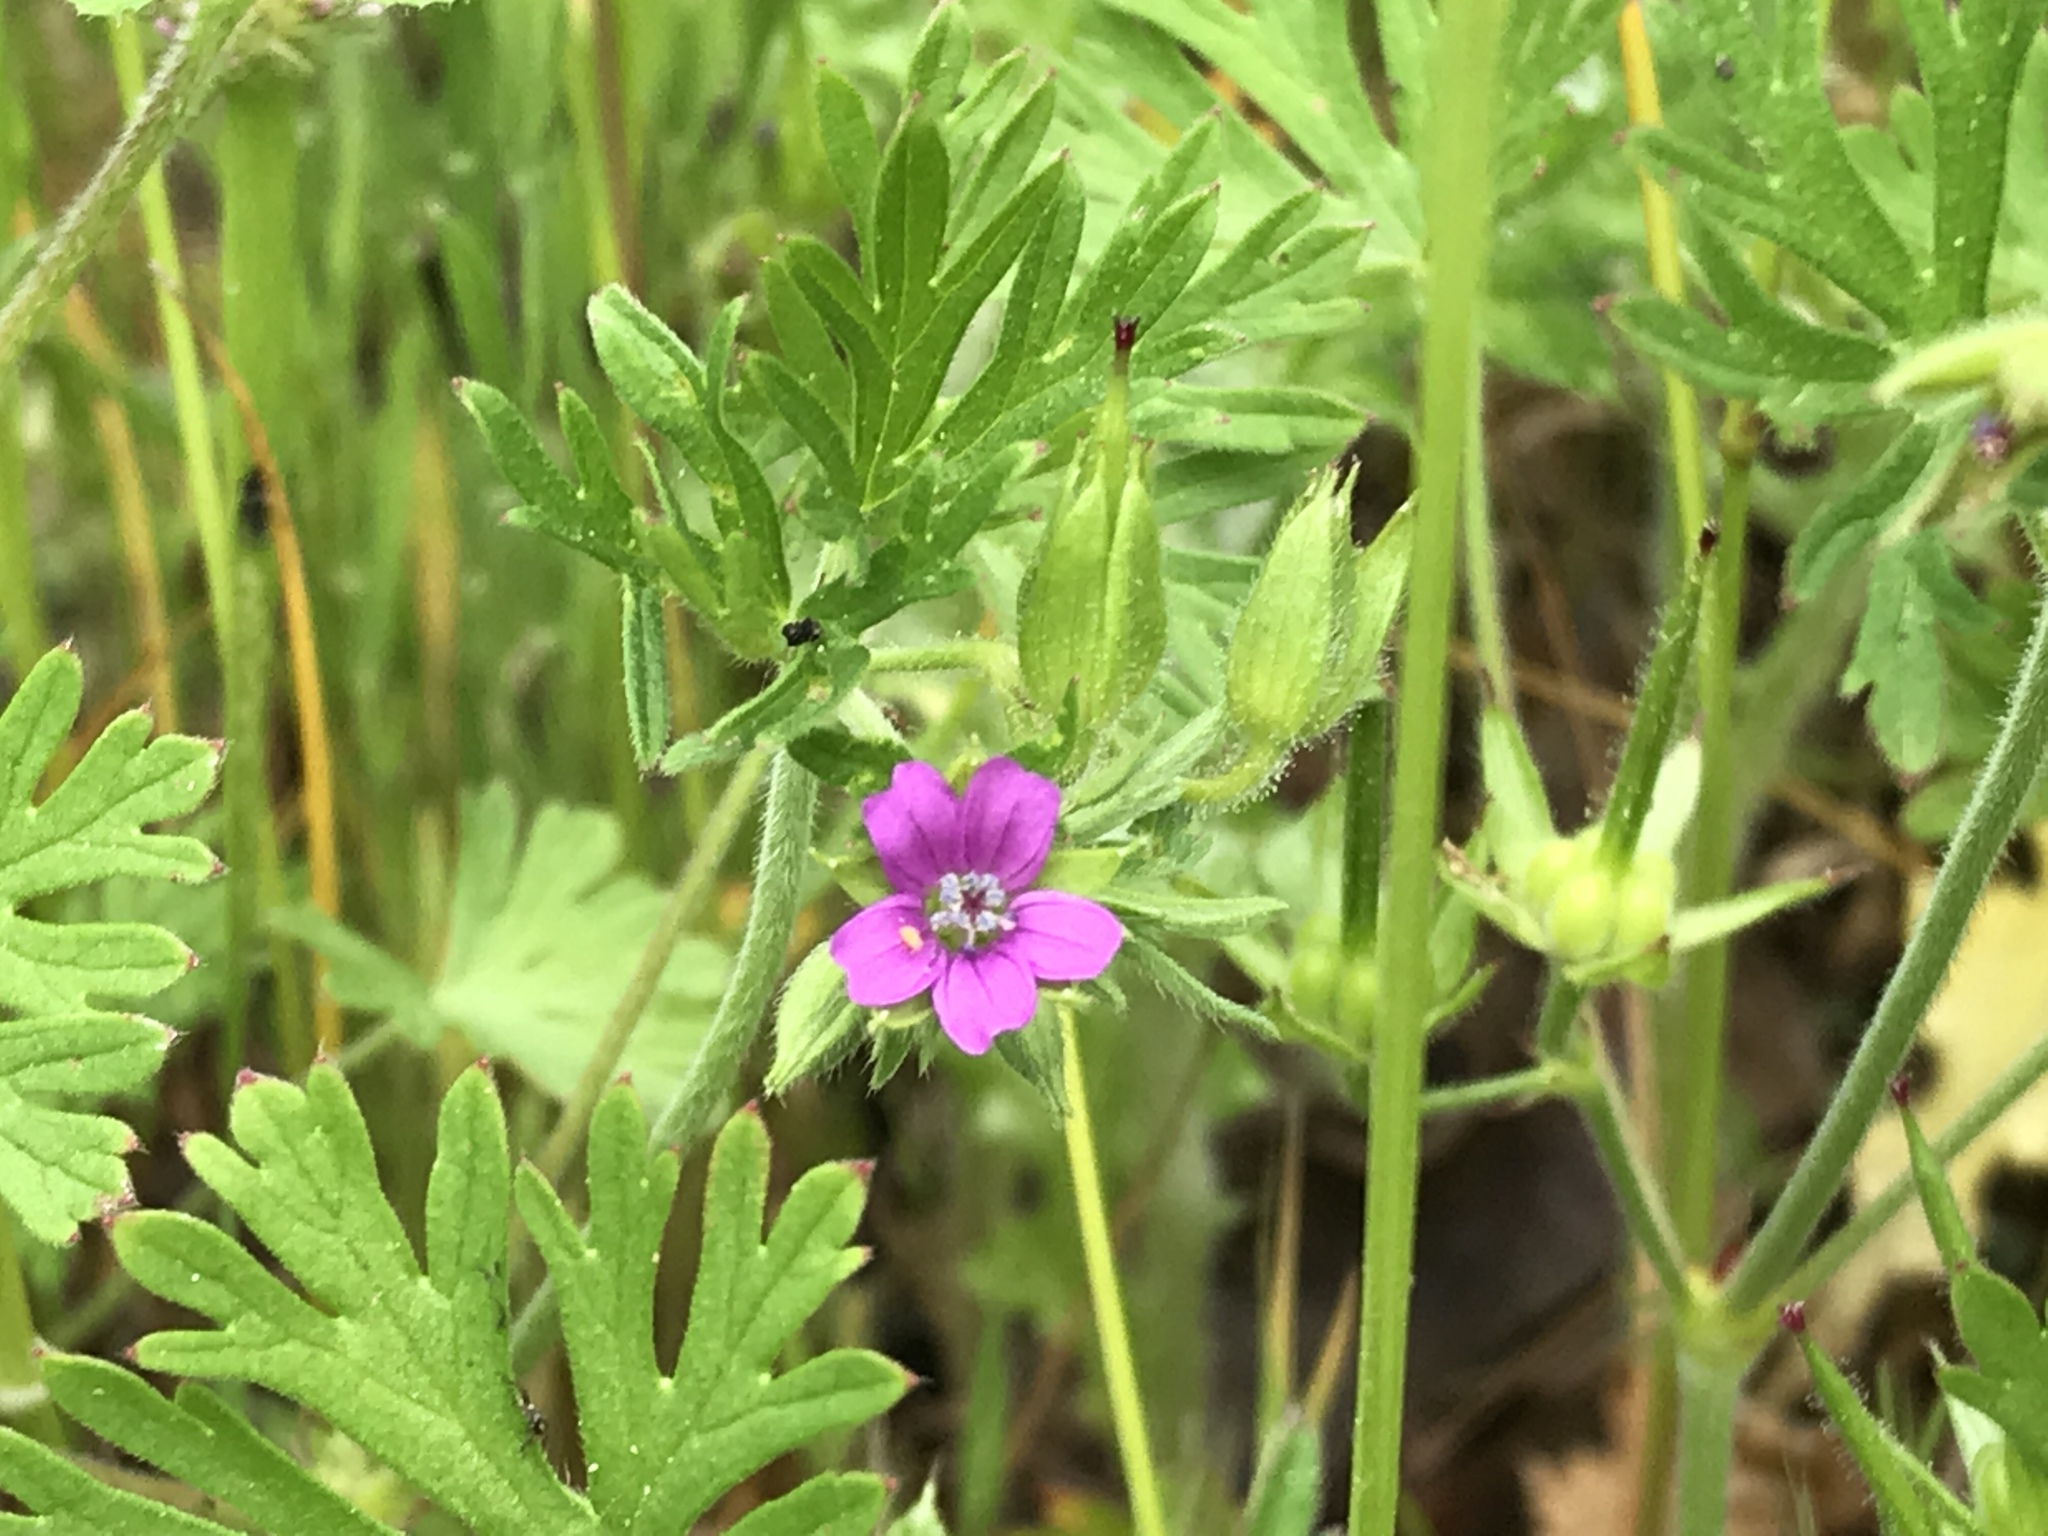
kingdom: Plantae
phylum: Tracheophyta
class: Magnoliopsida
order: Geraniales
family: Geraniaceae
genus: Geranium
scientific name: Geranium dissectum
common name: Cut-leaved crane's-bill
